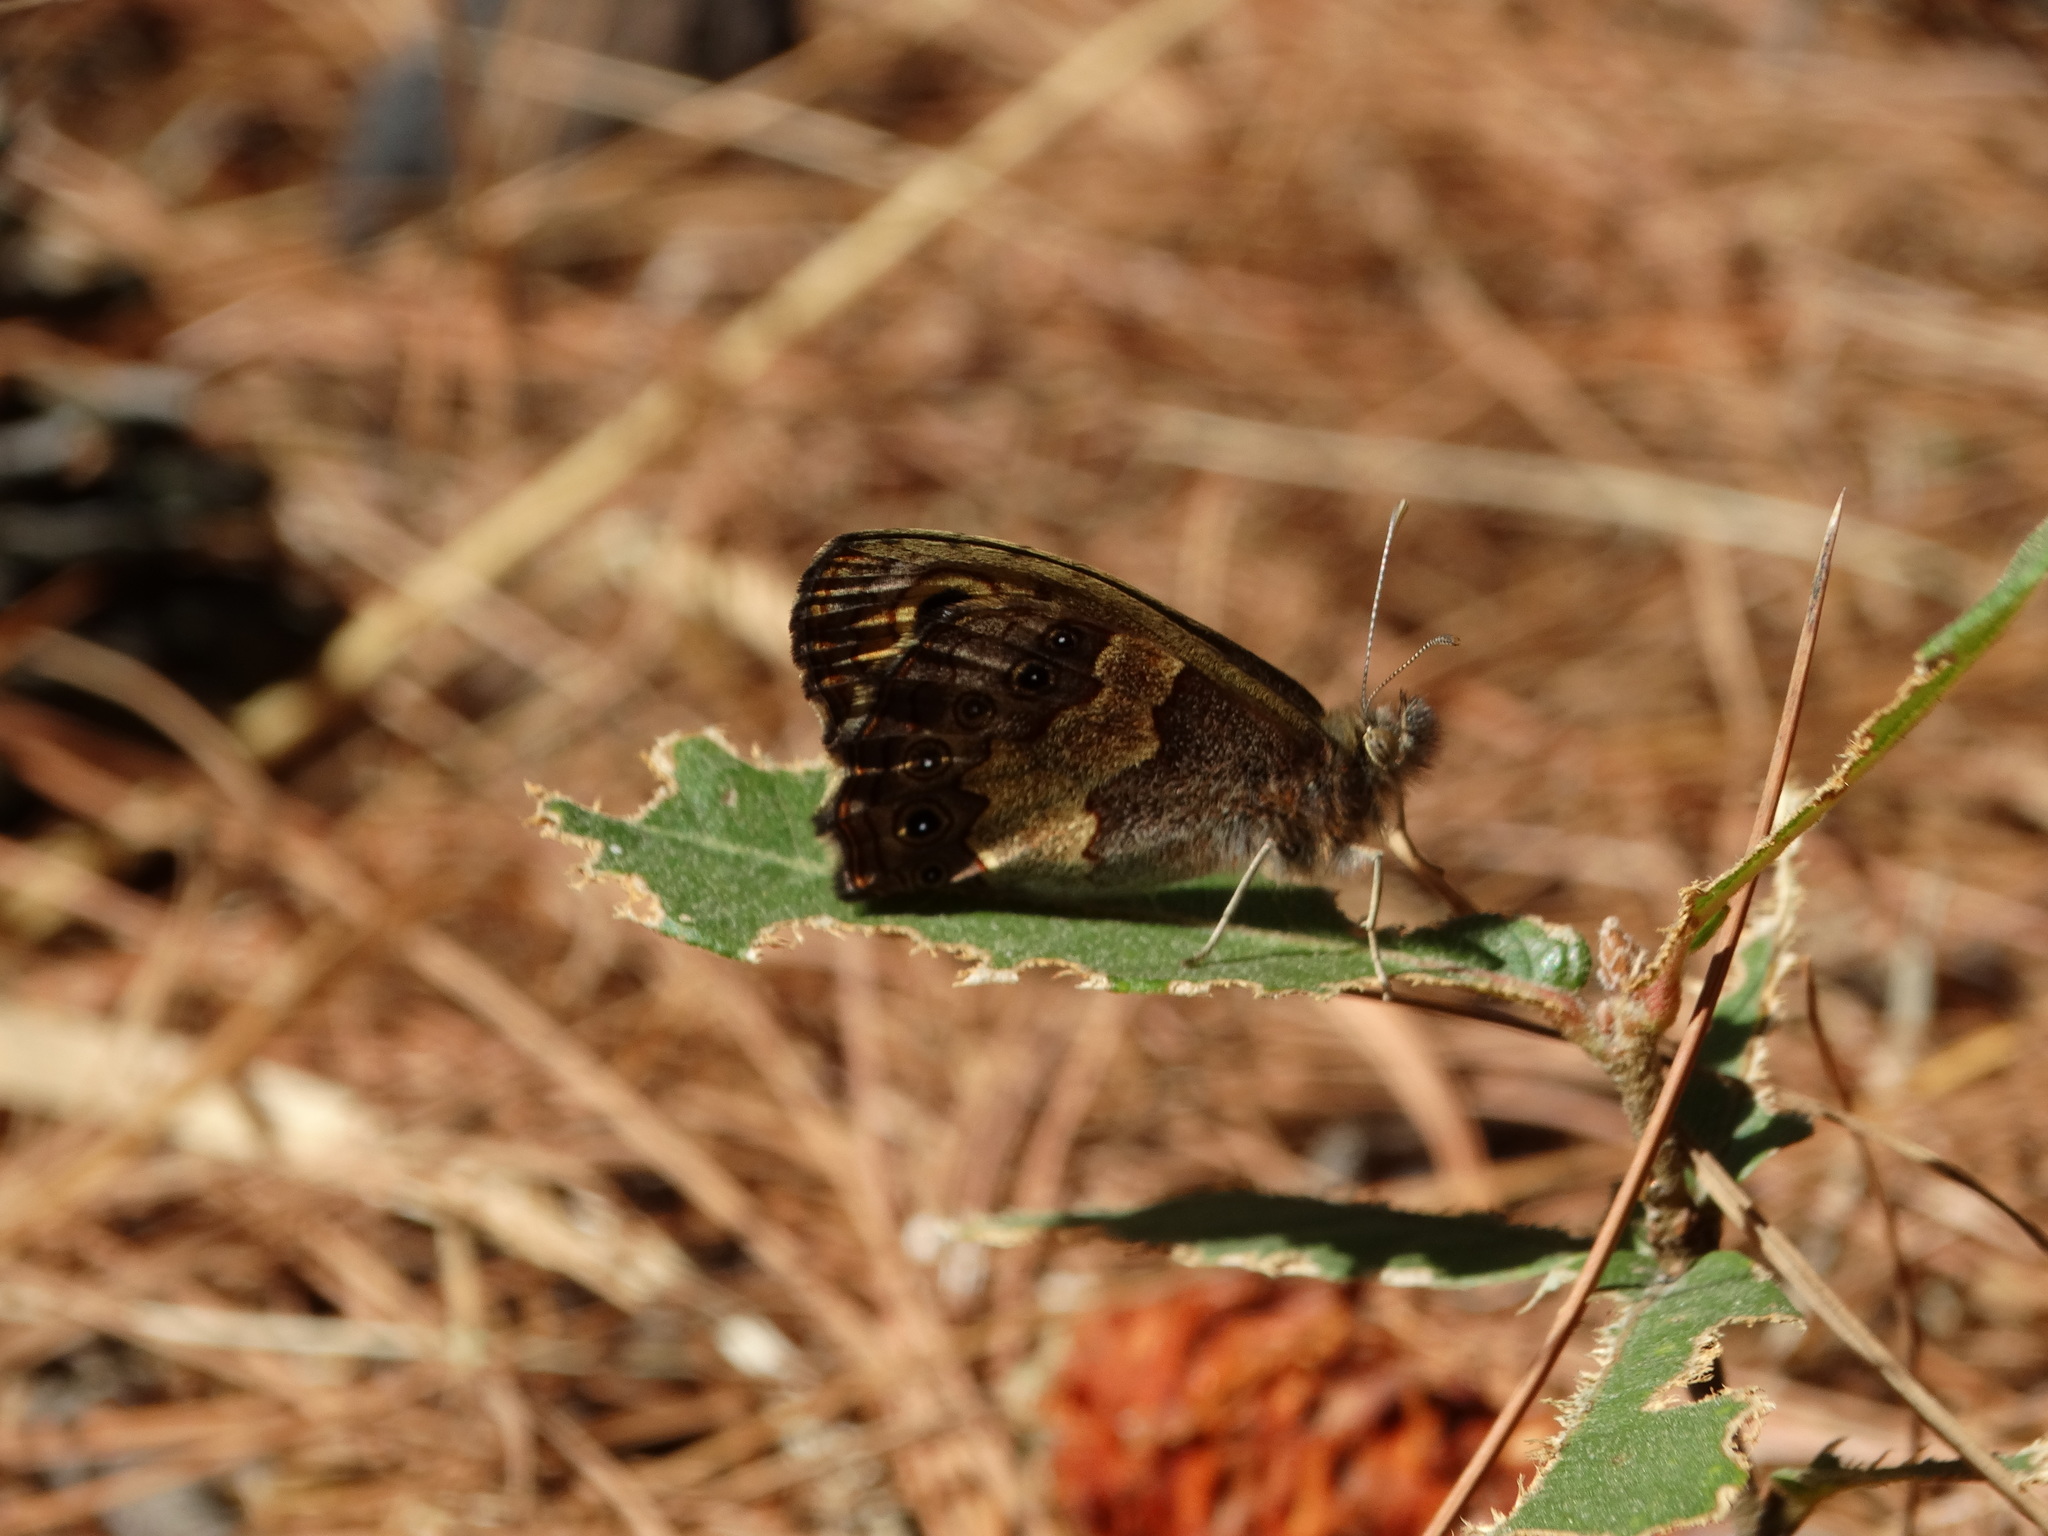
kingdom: Animalia
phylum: Arthropoda
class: Insecta
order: Lepidoptera
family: Nymphalidae
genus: Paramecera
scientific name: Paramecera xicaque
